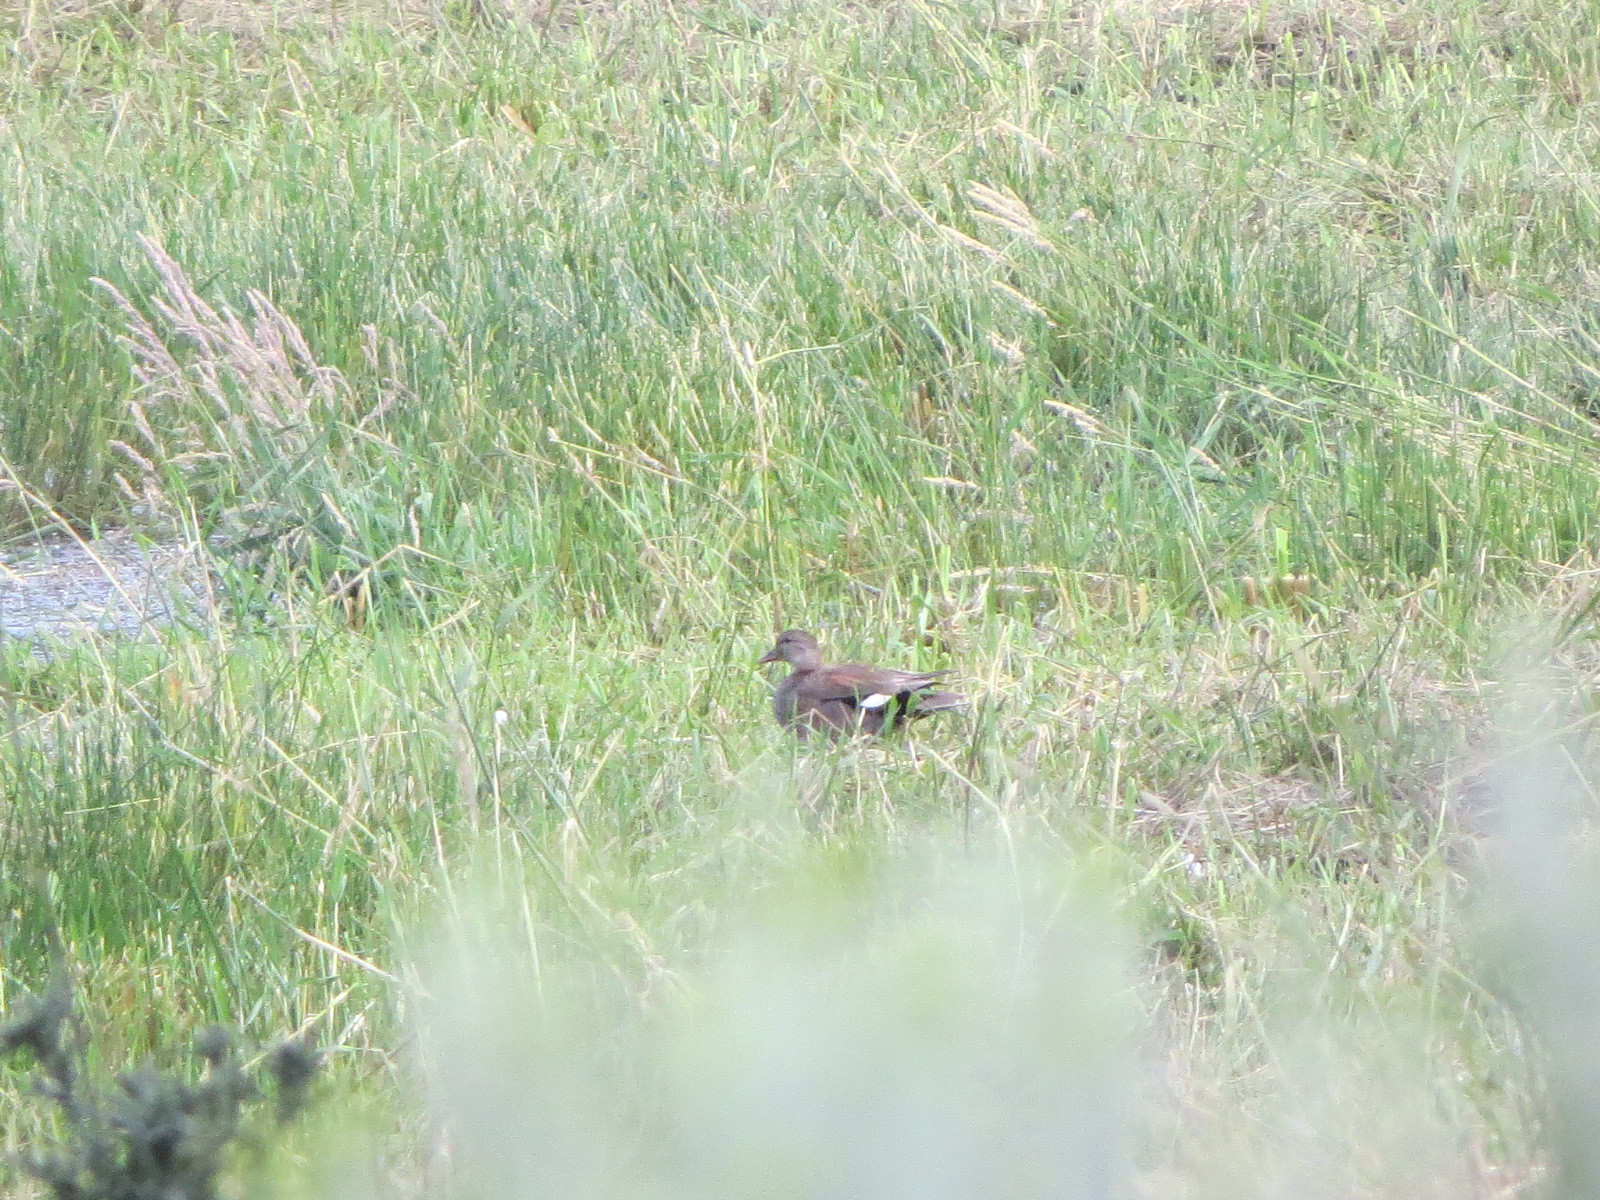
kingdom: Animalia
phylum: Chordata
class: Aves
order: Anseriformes
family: Anatidae
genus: Mareca
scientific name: Mareca strepera
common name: Gadwall
